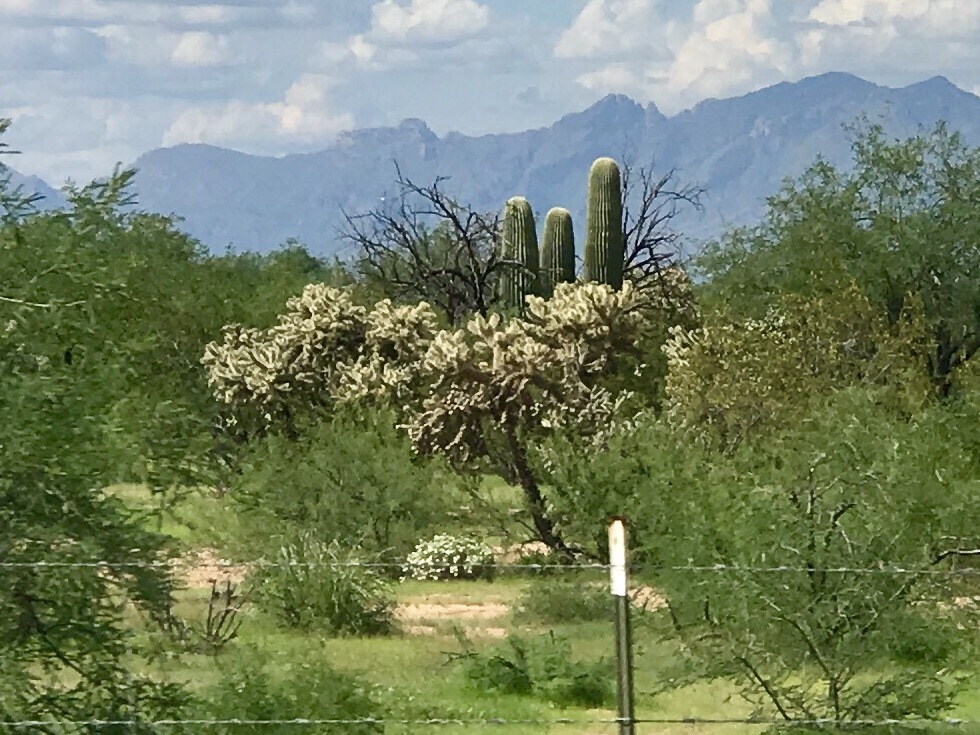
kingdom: Plantae
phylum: Tracheophyta
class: Magnoliopsida
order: Caryophyllales
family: Cactaceae
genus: Cylindropuntia
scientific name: Cylindropuntia fulgida
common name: Jumping cholla
